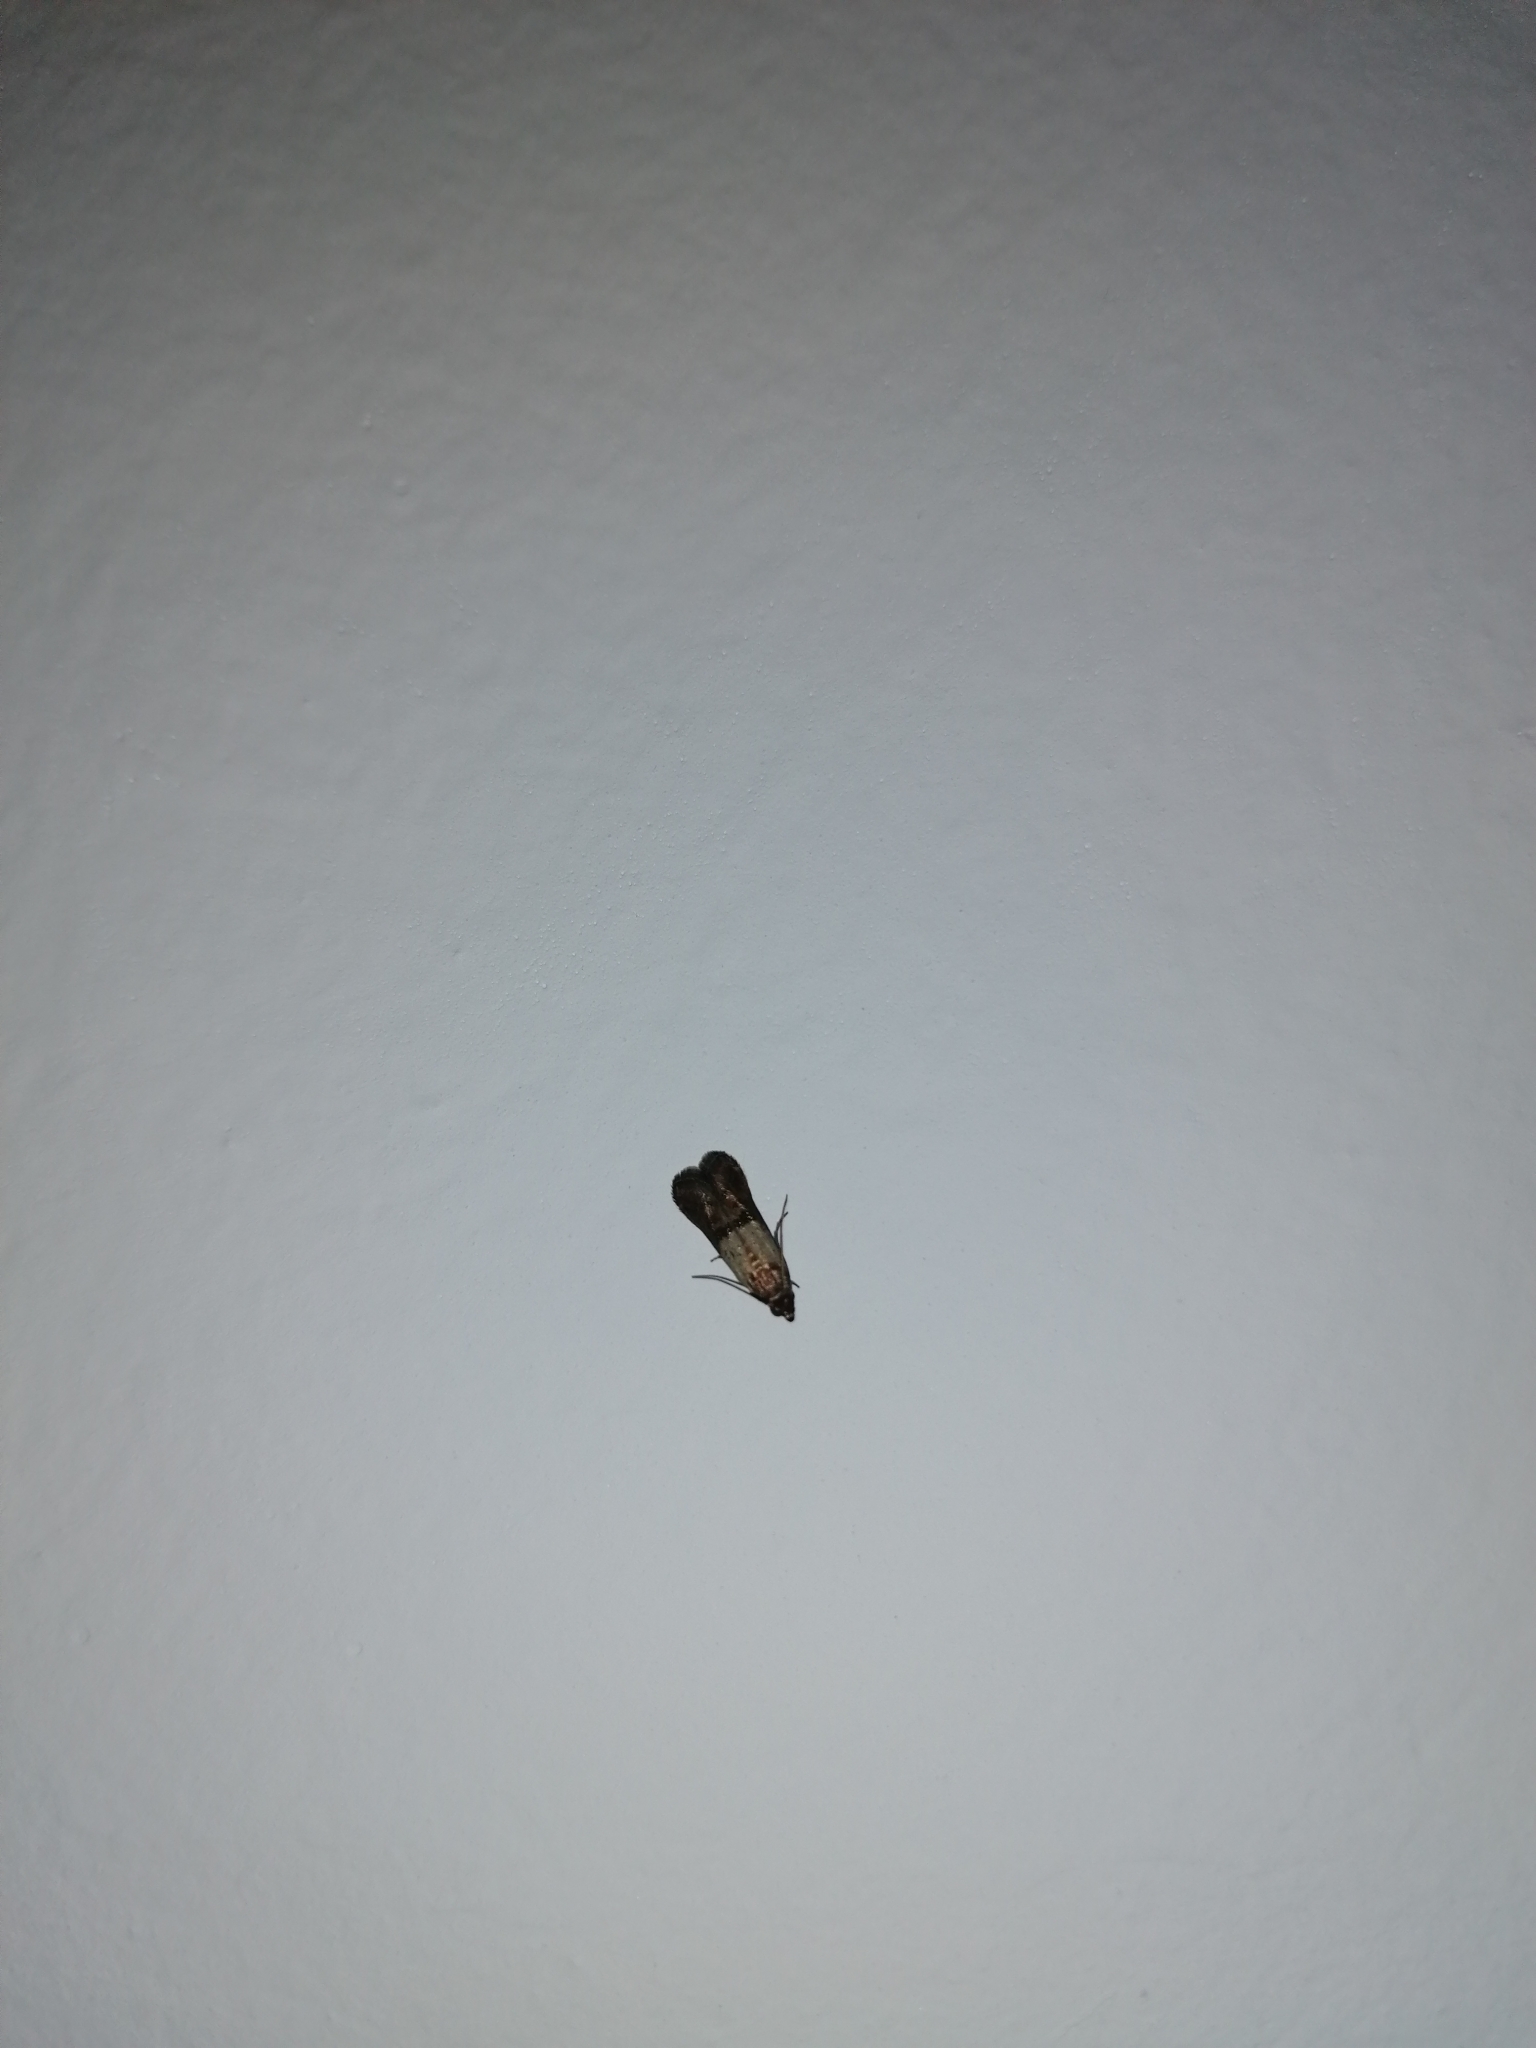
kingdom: Animalia
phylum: Arthropoda
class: Insecta
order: Lepidoptera
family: Pyralidae
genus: Plodia
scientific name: Plodia interpunctella
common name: Indian meal moth
